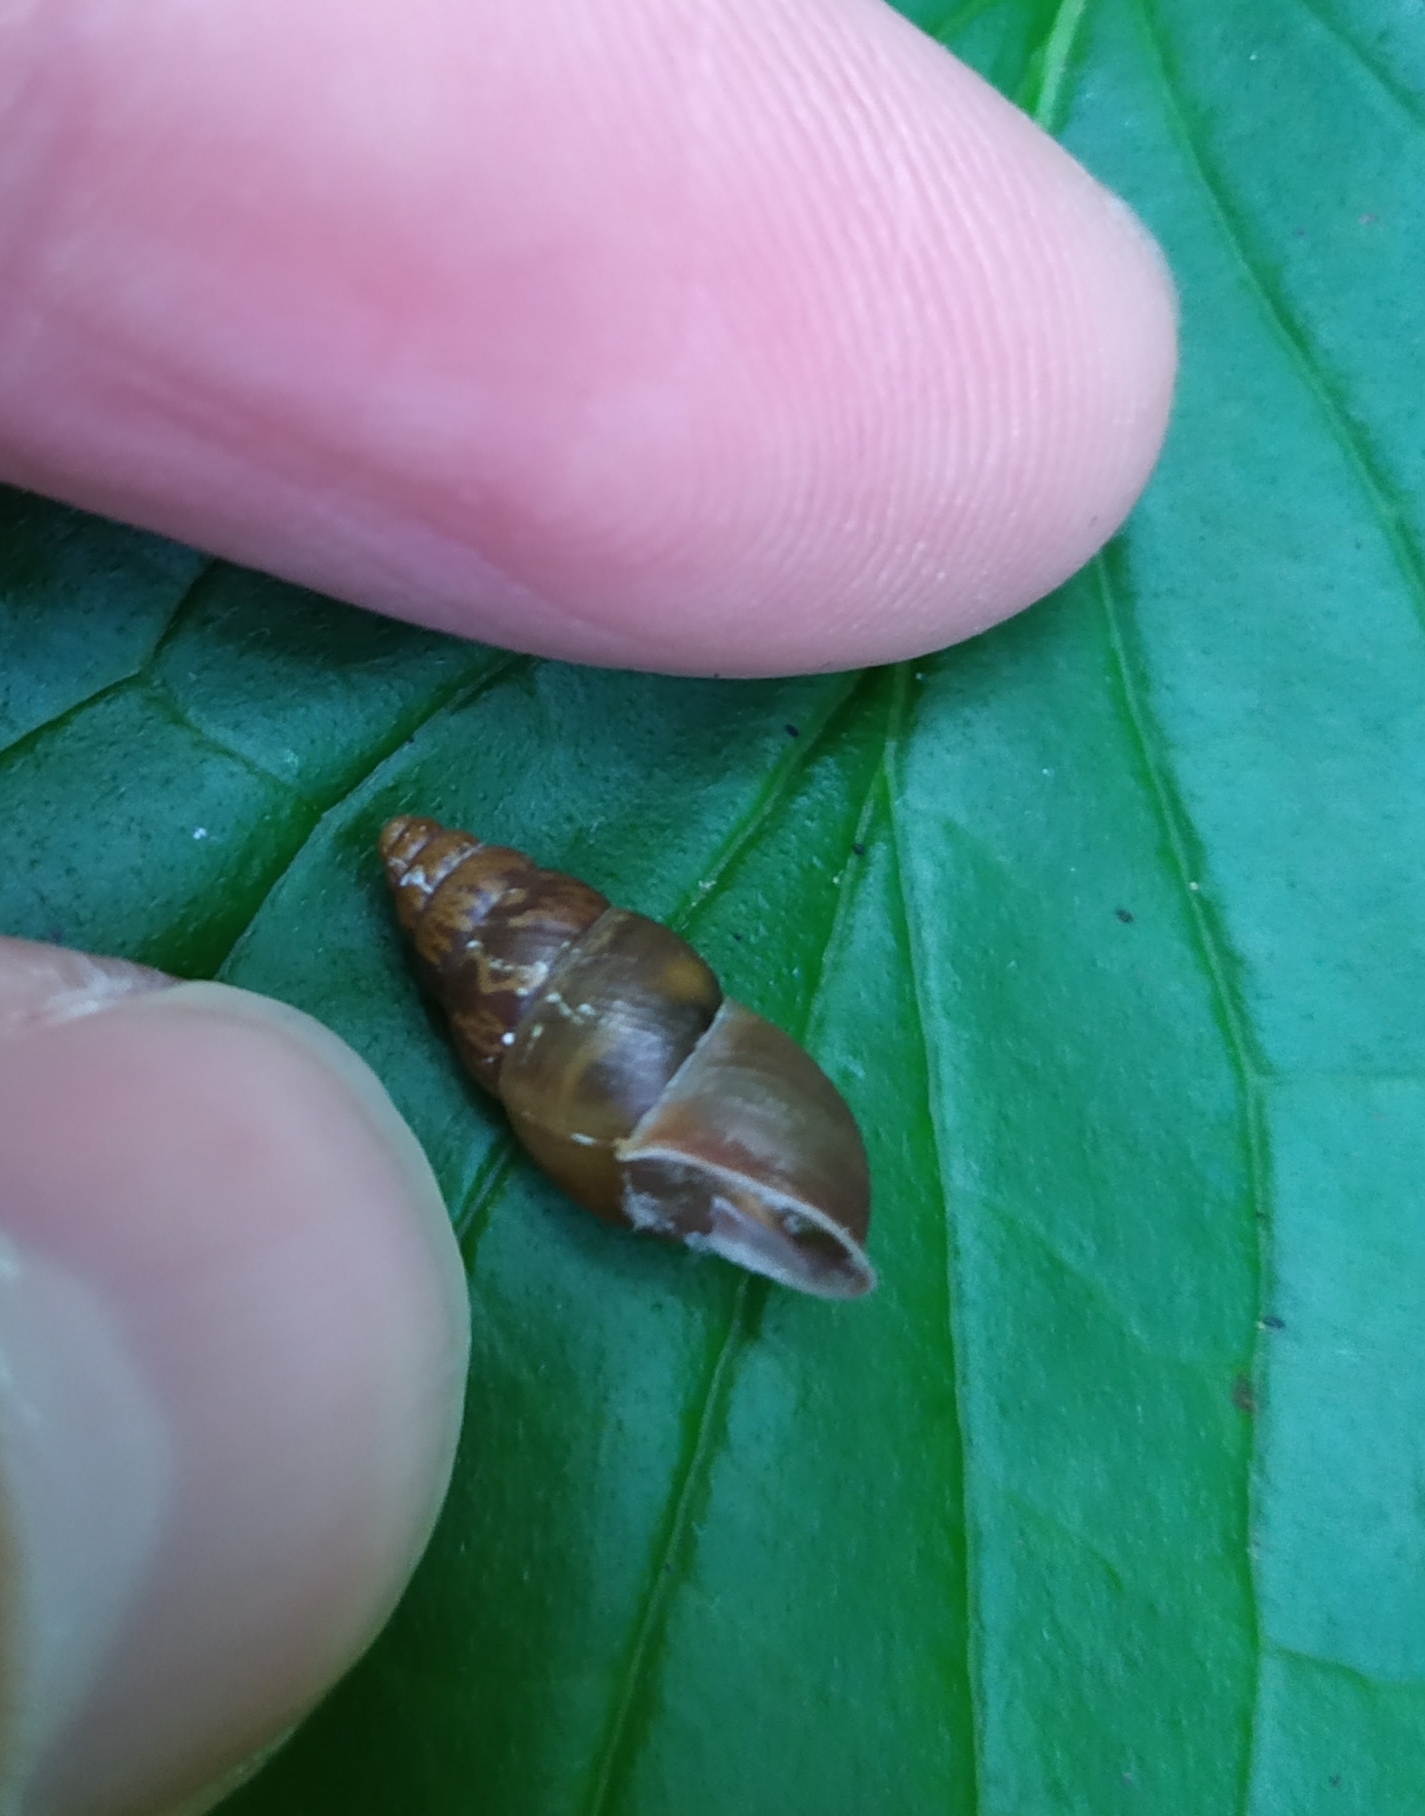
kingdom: Animalia
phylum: Mollusca
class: Gastropoda
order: Stylommatophora
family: Enidae
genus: Ena
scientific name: Ena montana
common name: Mountain bulin
